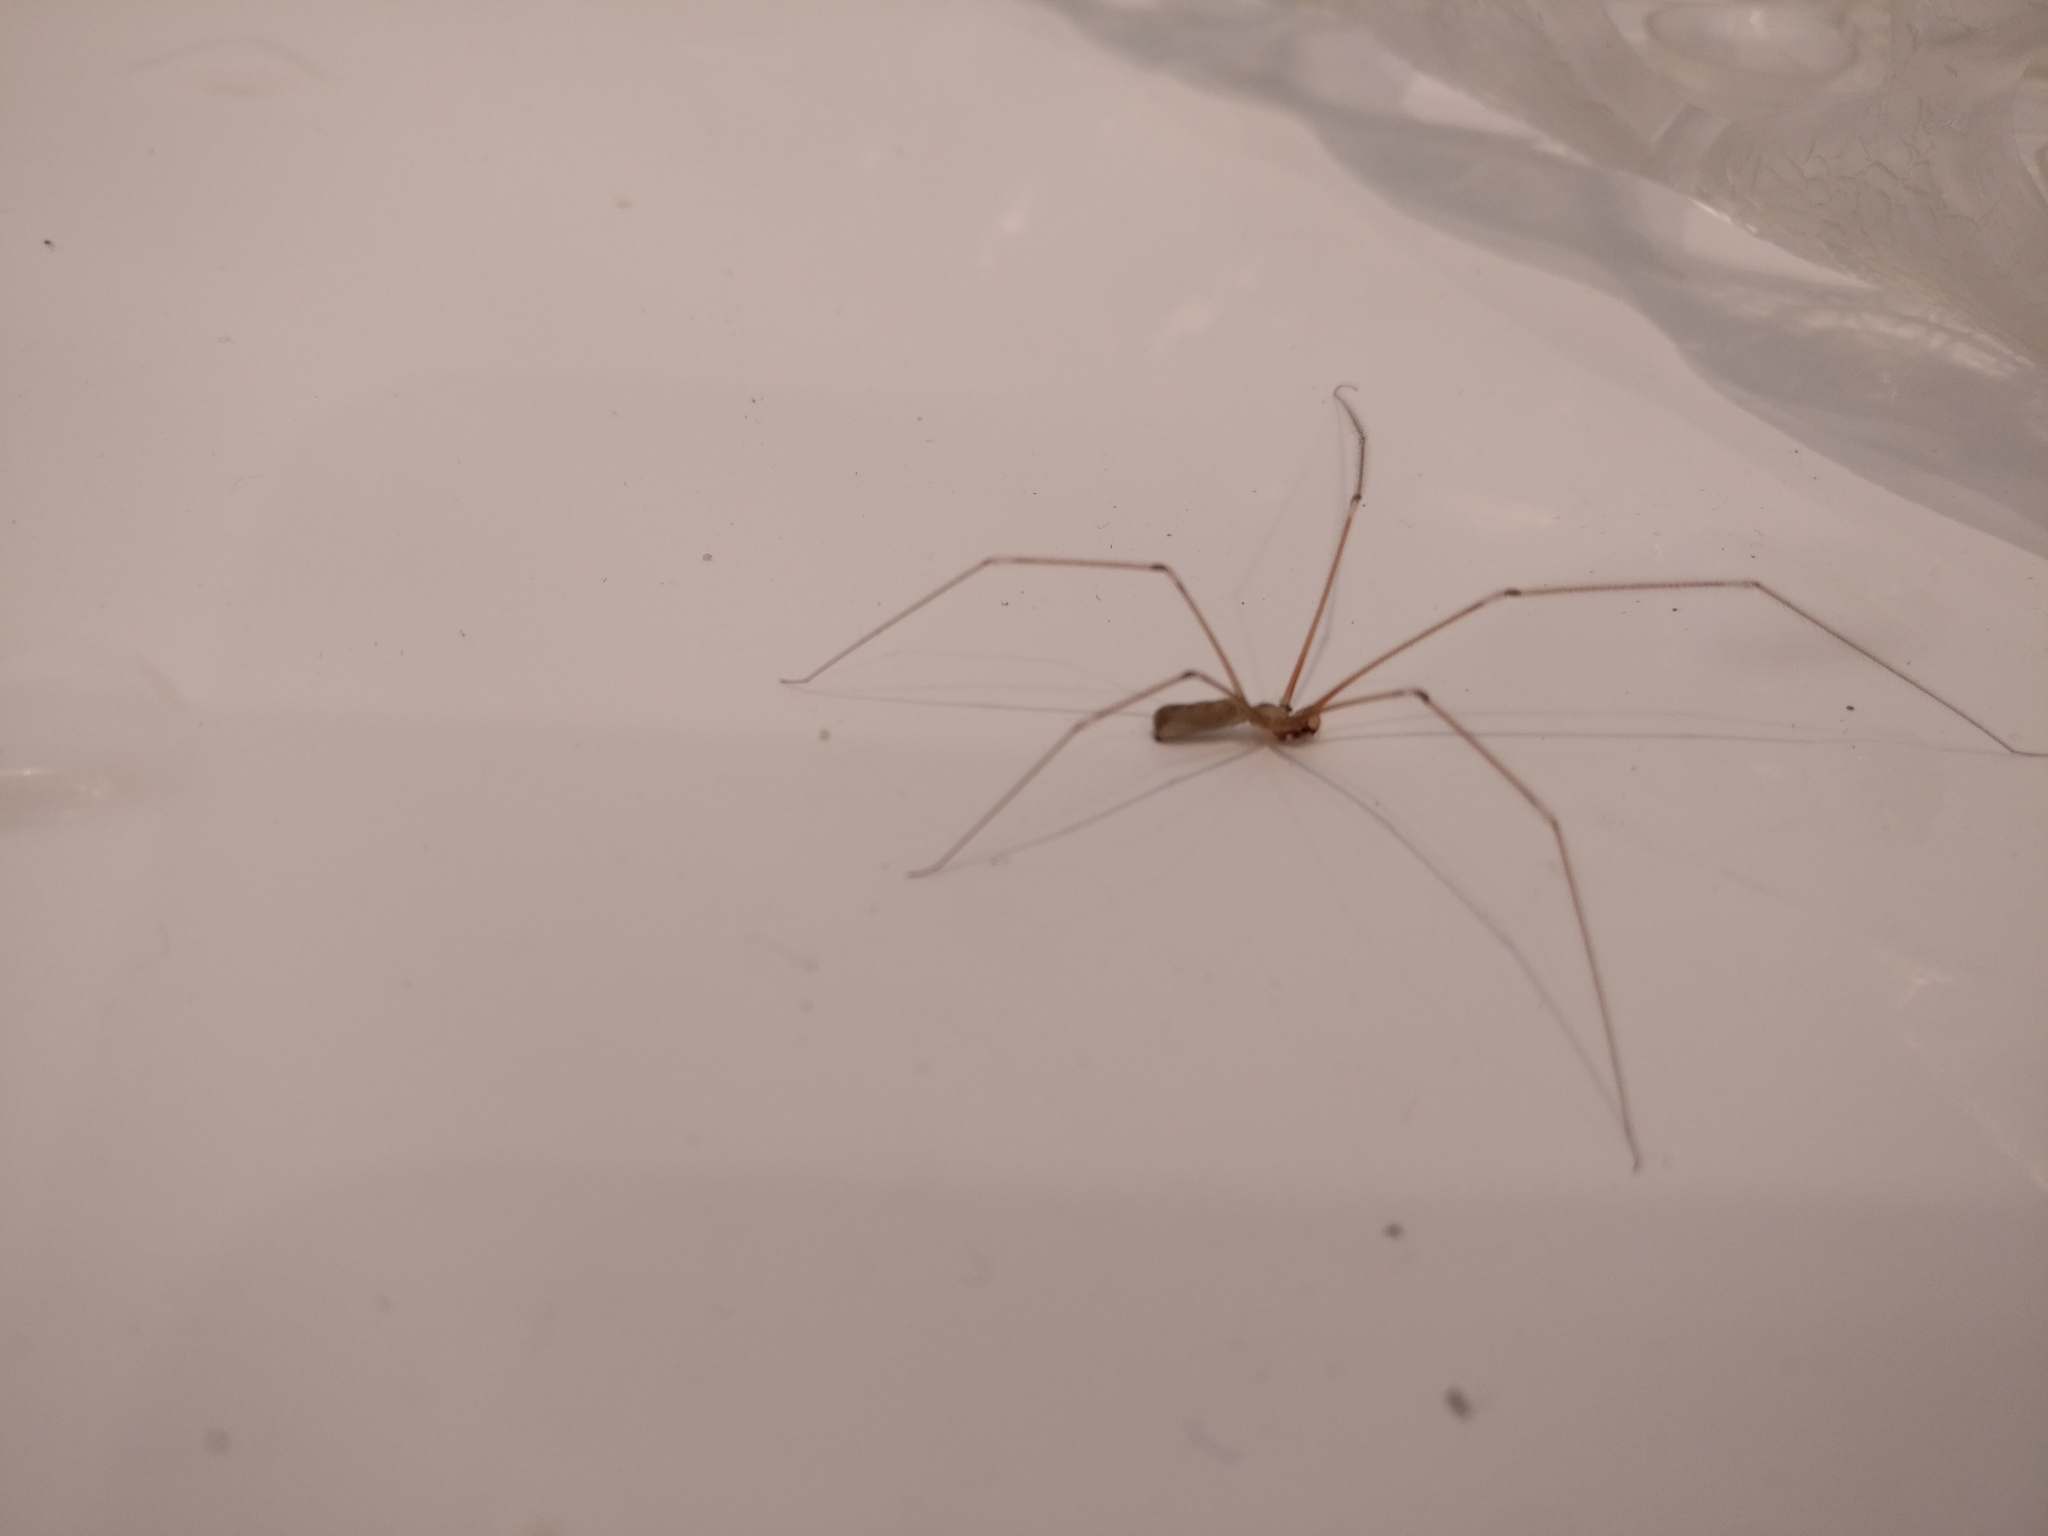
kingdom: Animalia
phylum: Arthropoda
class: Arachnida
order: Araneae
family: Pholcidae
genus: Pholcus
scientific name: Pholcus phalangioides
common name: Longbodied cellar spider
